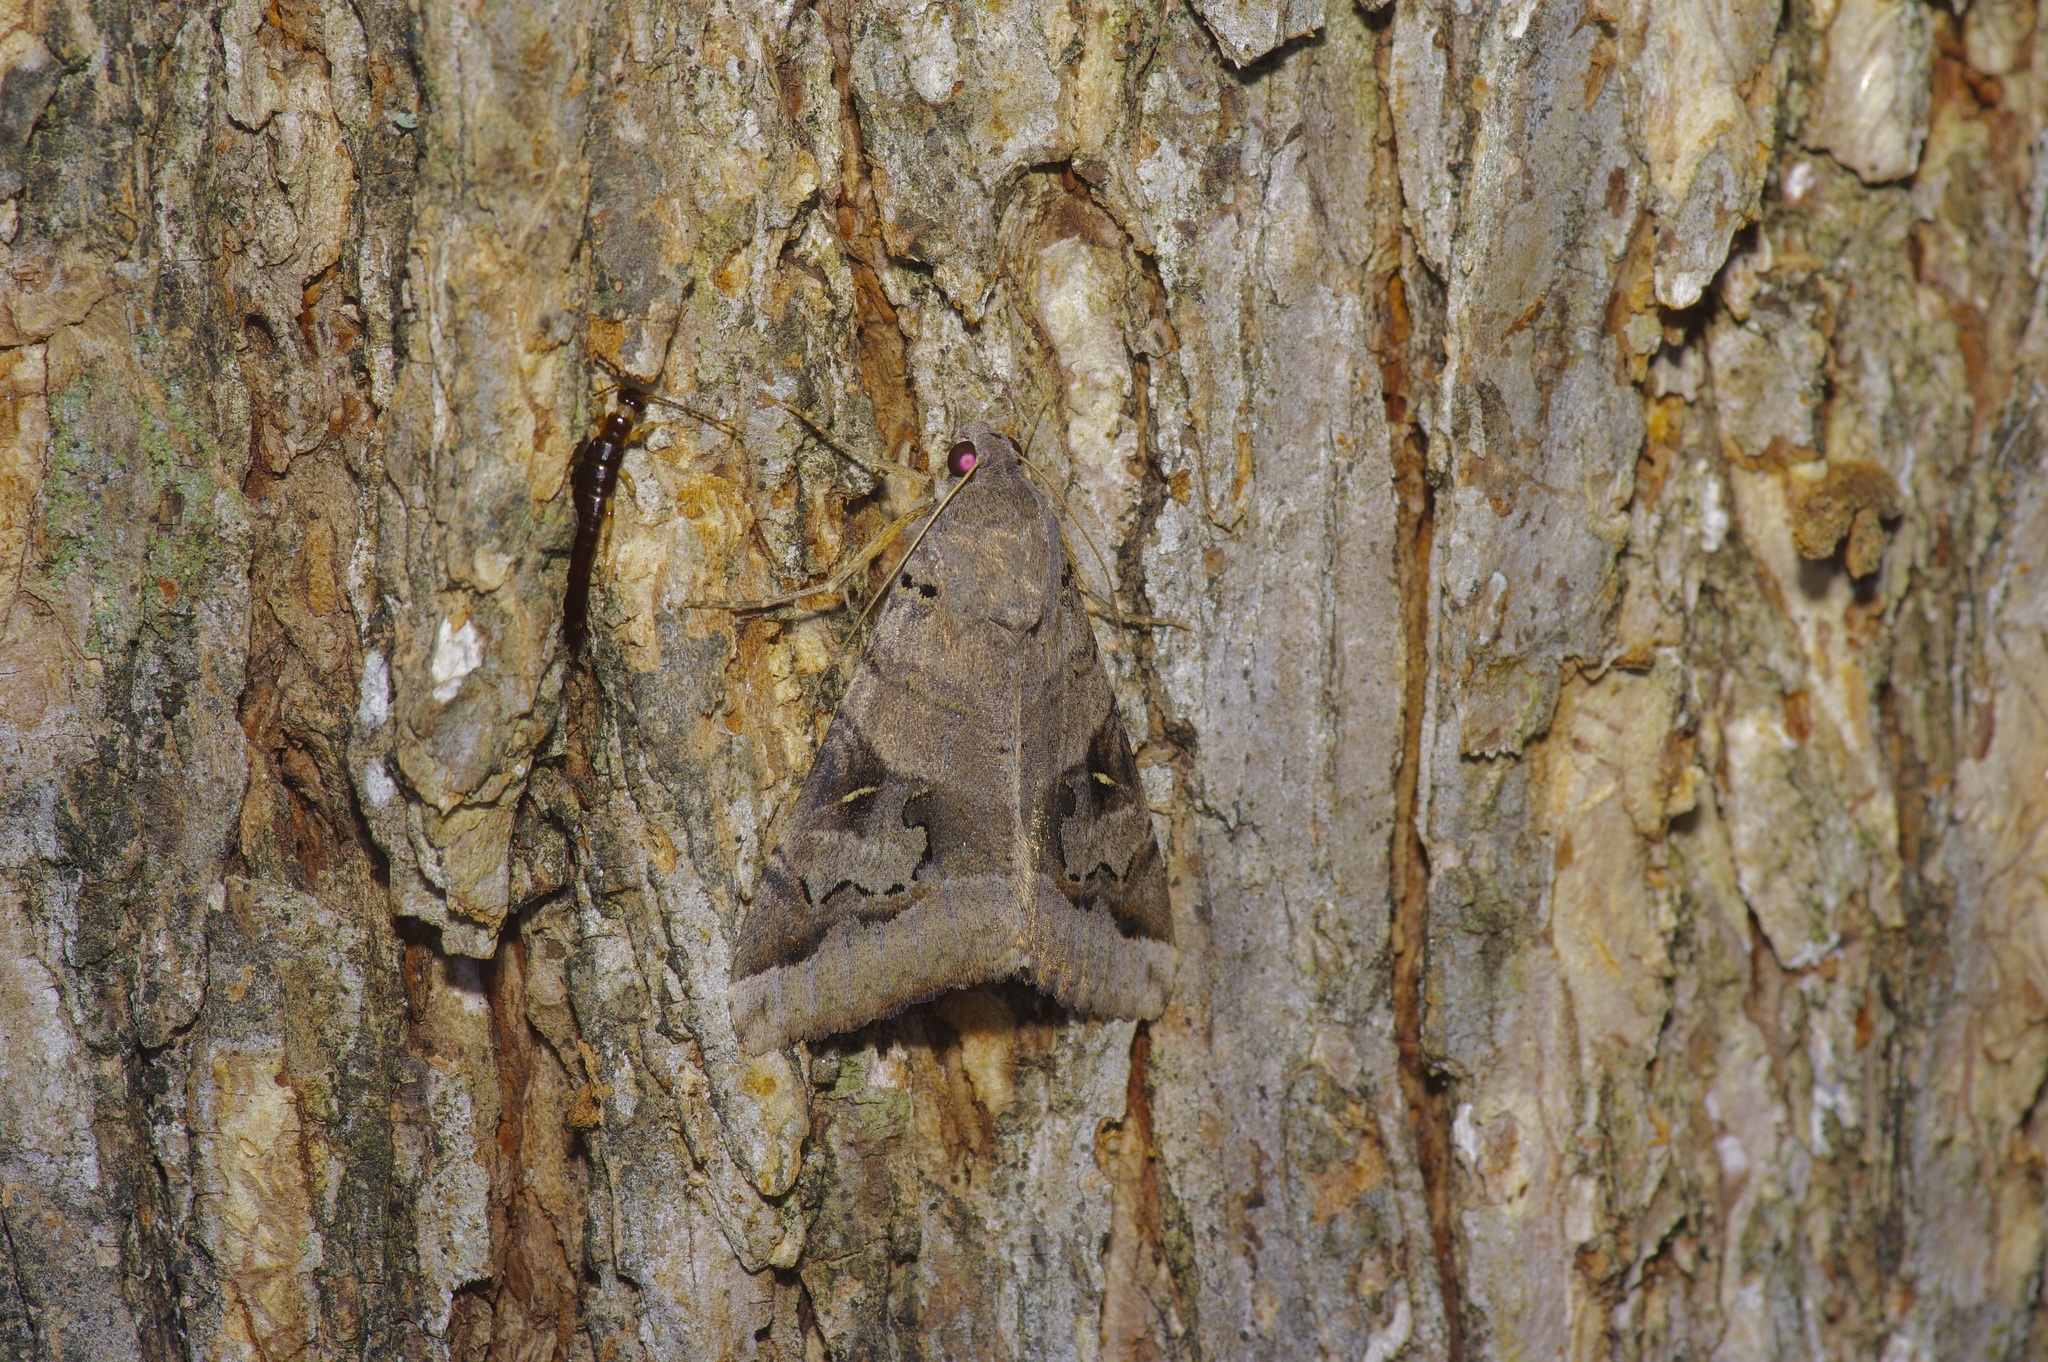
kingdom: Animalia
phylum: Arthropoda
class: Insecta
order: Lepidoptera
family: Erebidae
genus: Melipotis
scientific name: Melipotis indomita
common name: Moth
